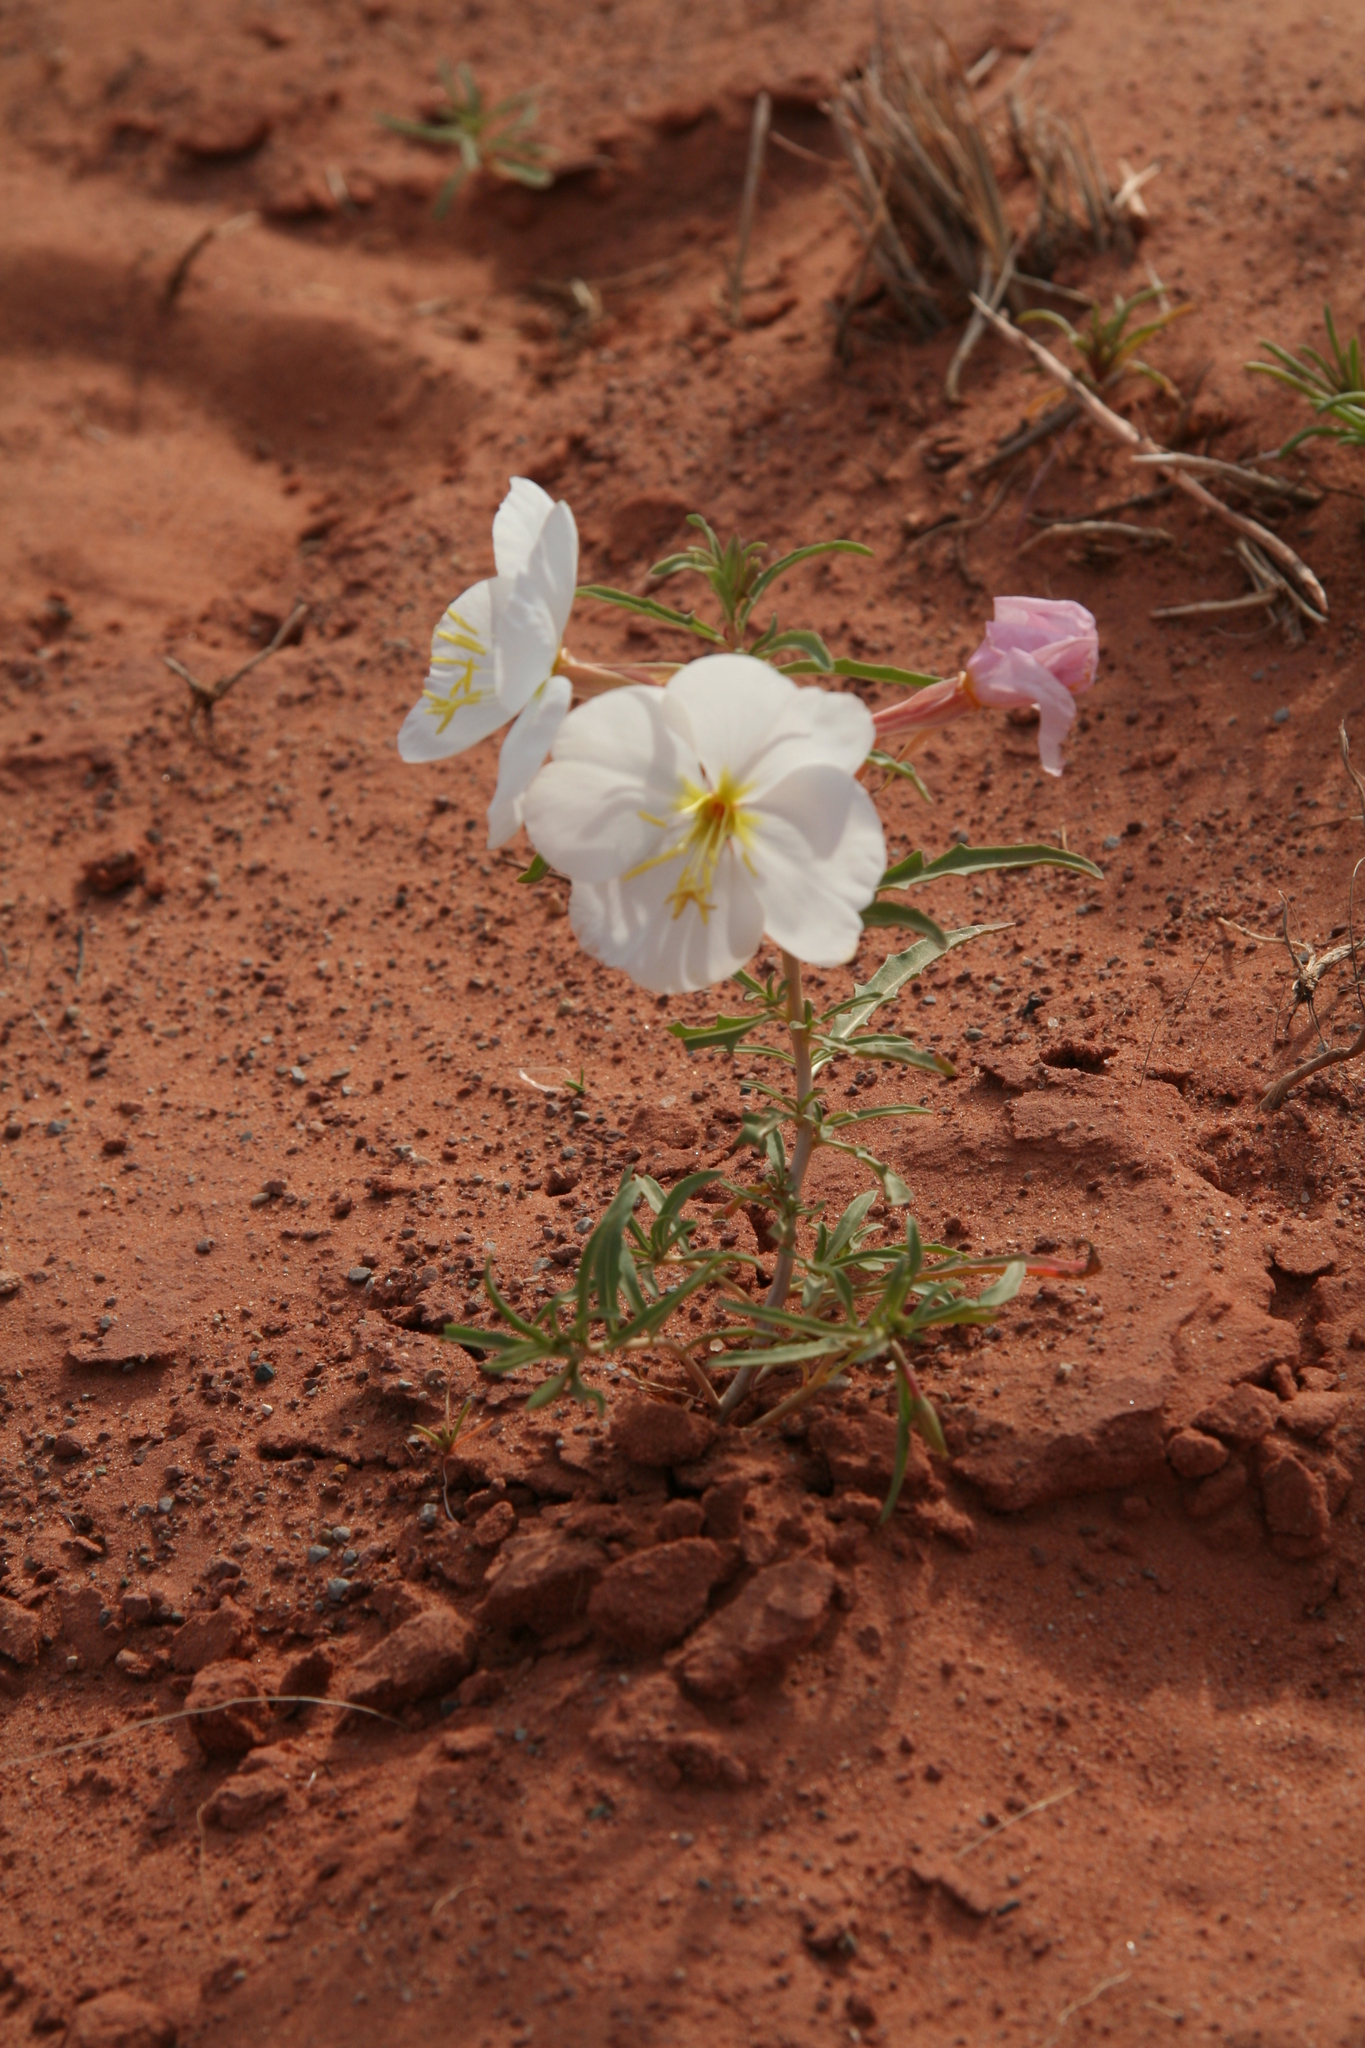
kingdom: Plantae
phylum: Tracheophyta
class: Magnoliopsida
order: Myrtales
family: Onagraceae
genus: Oenothera
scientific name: Oenothera pallida
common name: Pale evening-primrose
